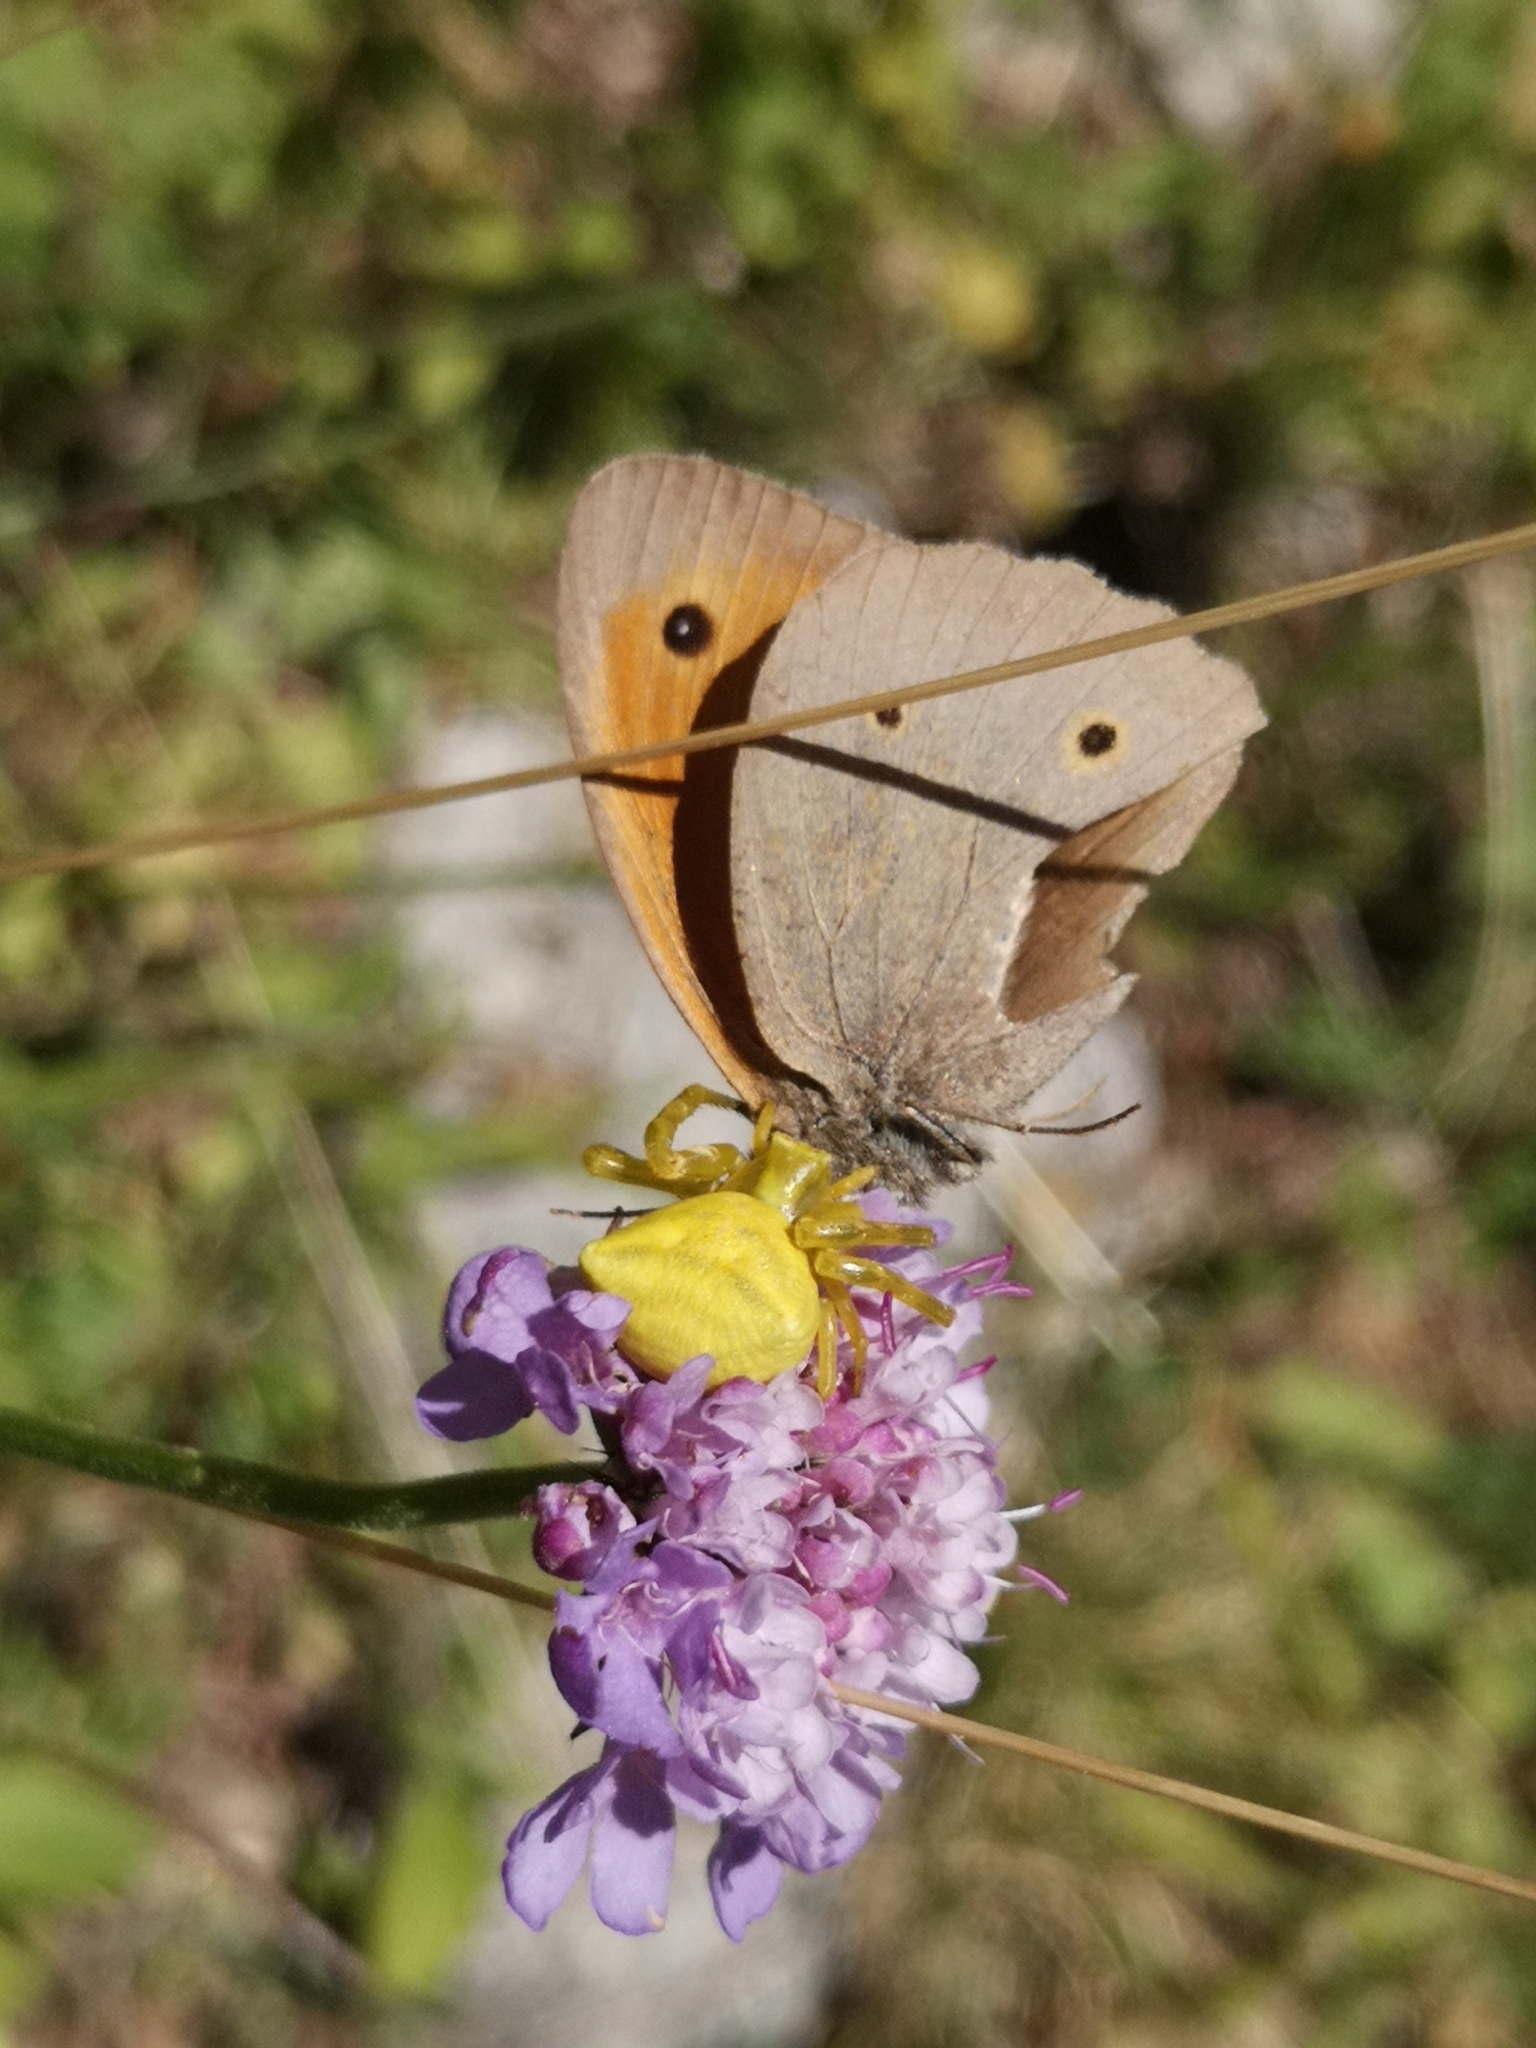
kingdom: Animalia
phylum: Arthropoda
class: Insecta
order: Lepidoptera
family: Nymphalidae
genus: Maniola
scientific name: Maniola jurtina
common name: Meadow brown
